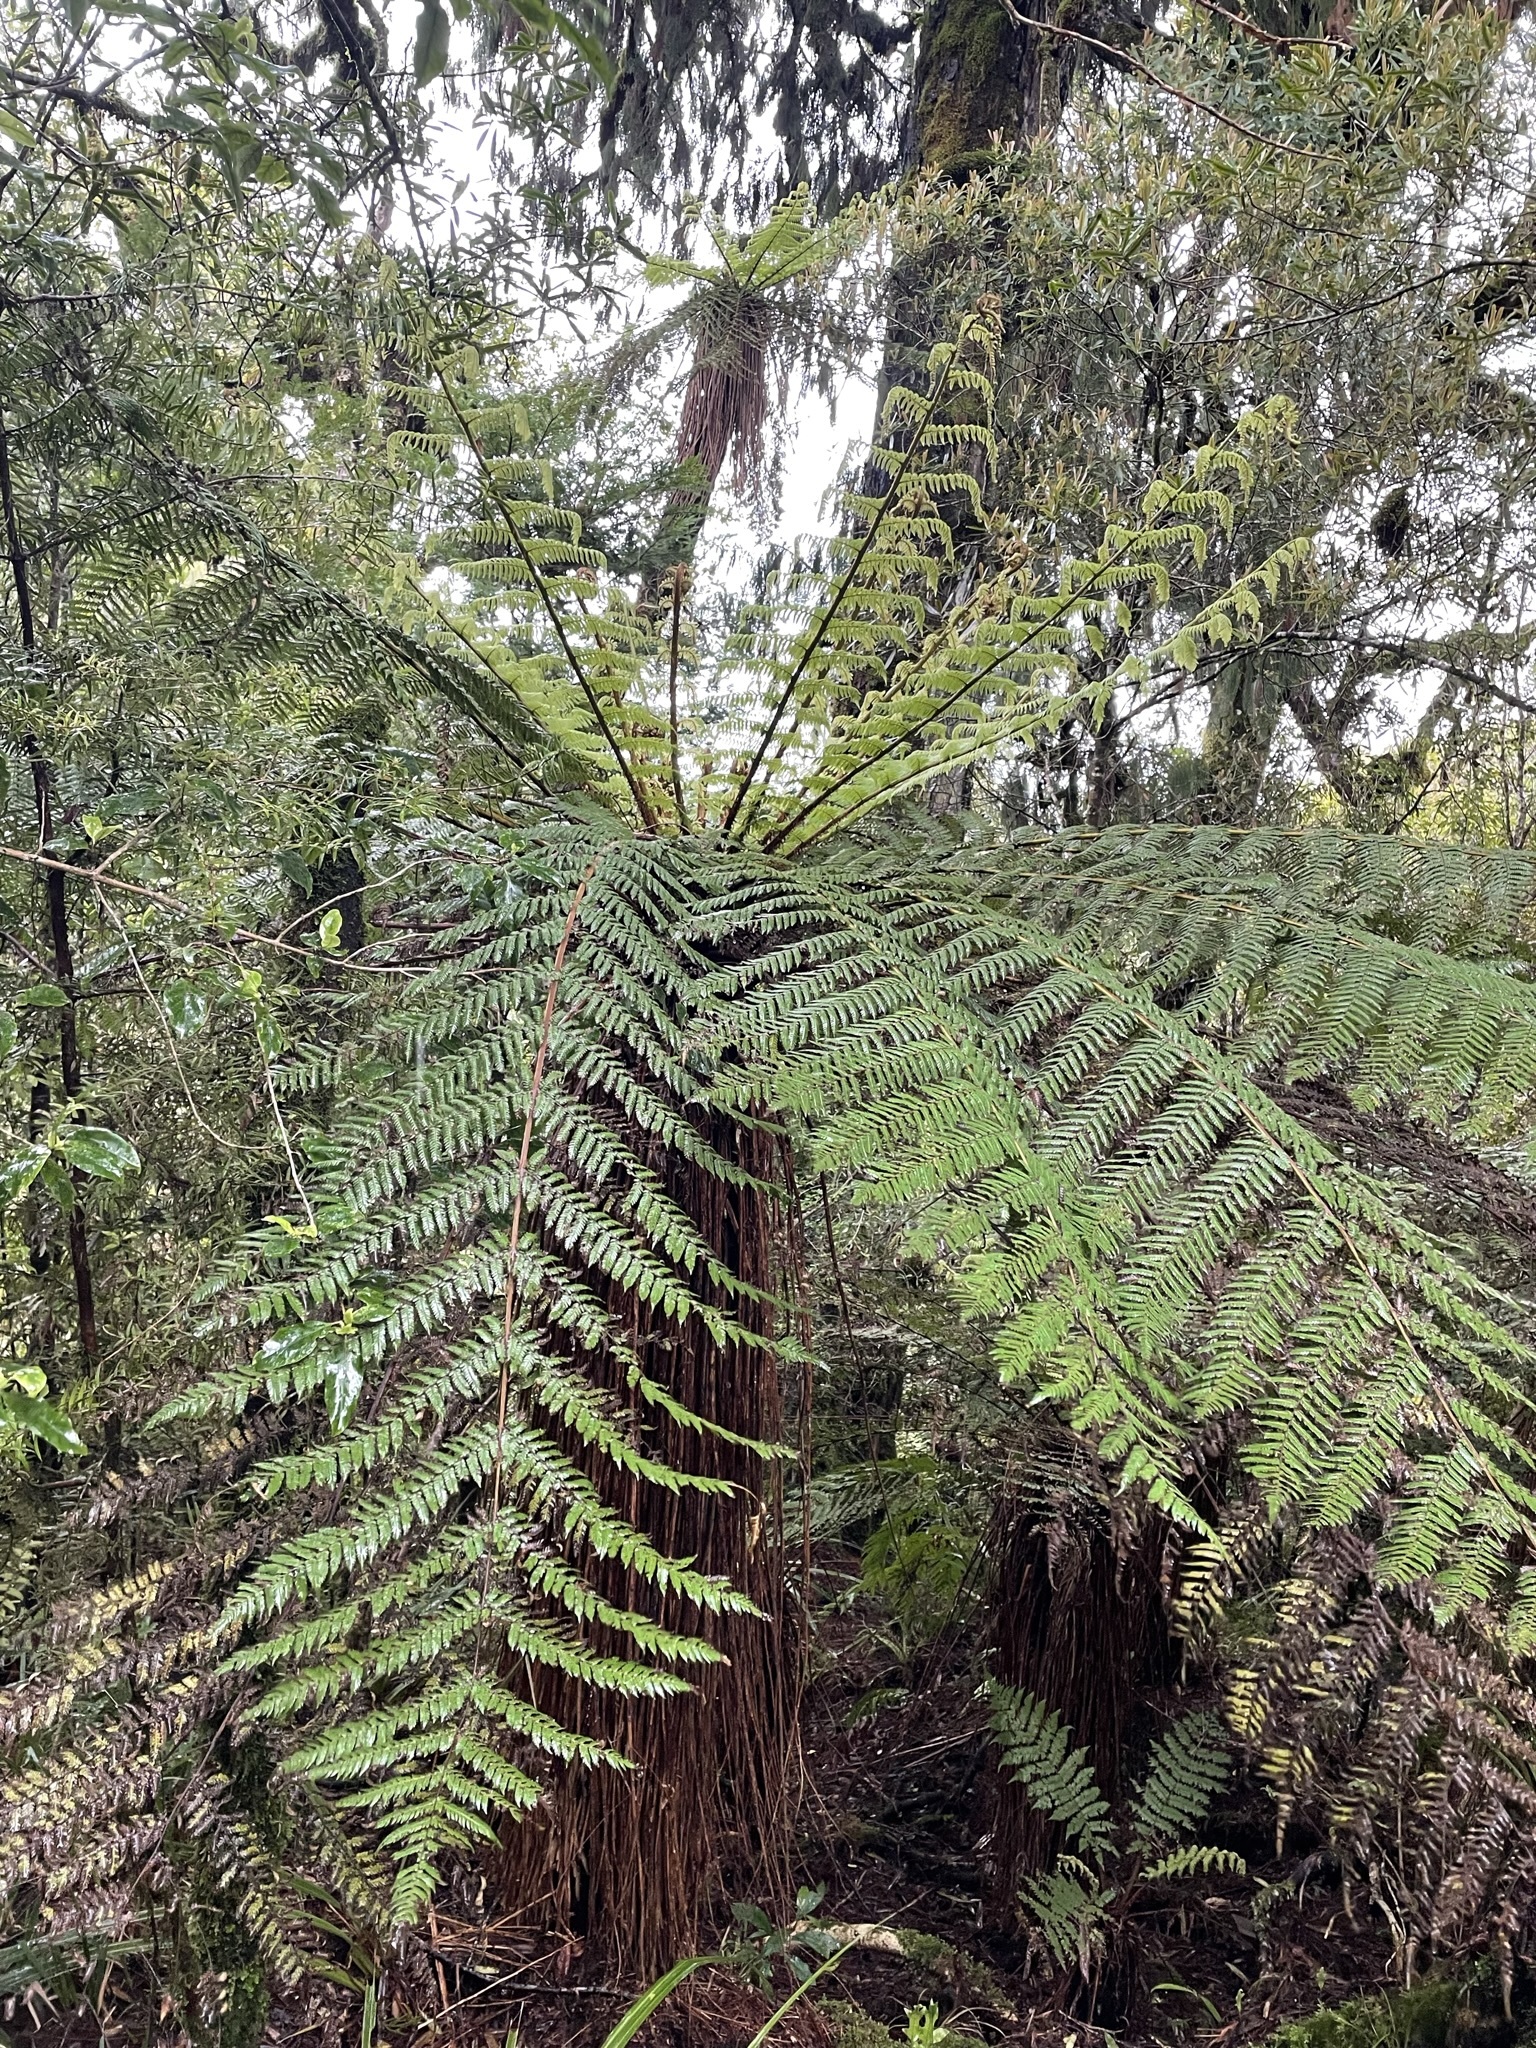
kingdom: Plantae
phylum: Tracheophyta
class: Polypodiopsida
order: Cyatheales
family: Cyatheaceae
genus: Alsophila
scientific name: Alsophila smithii
